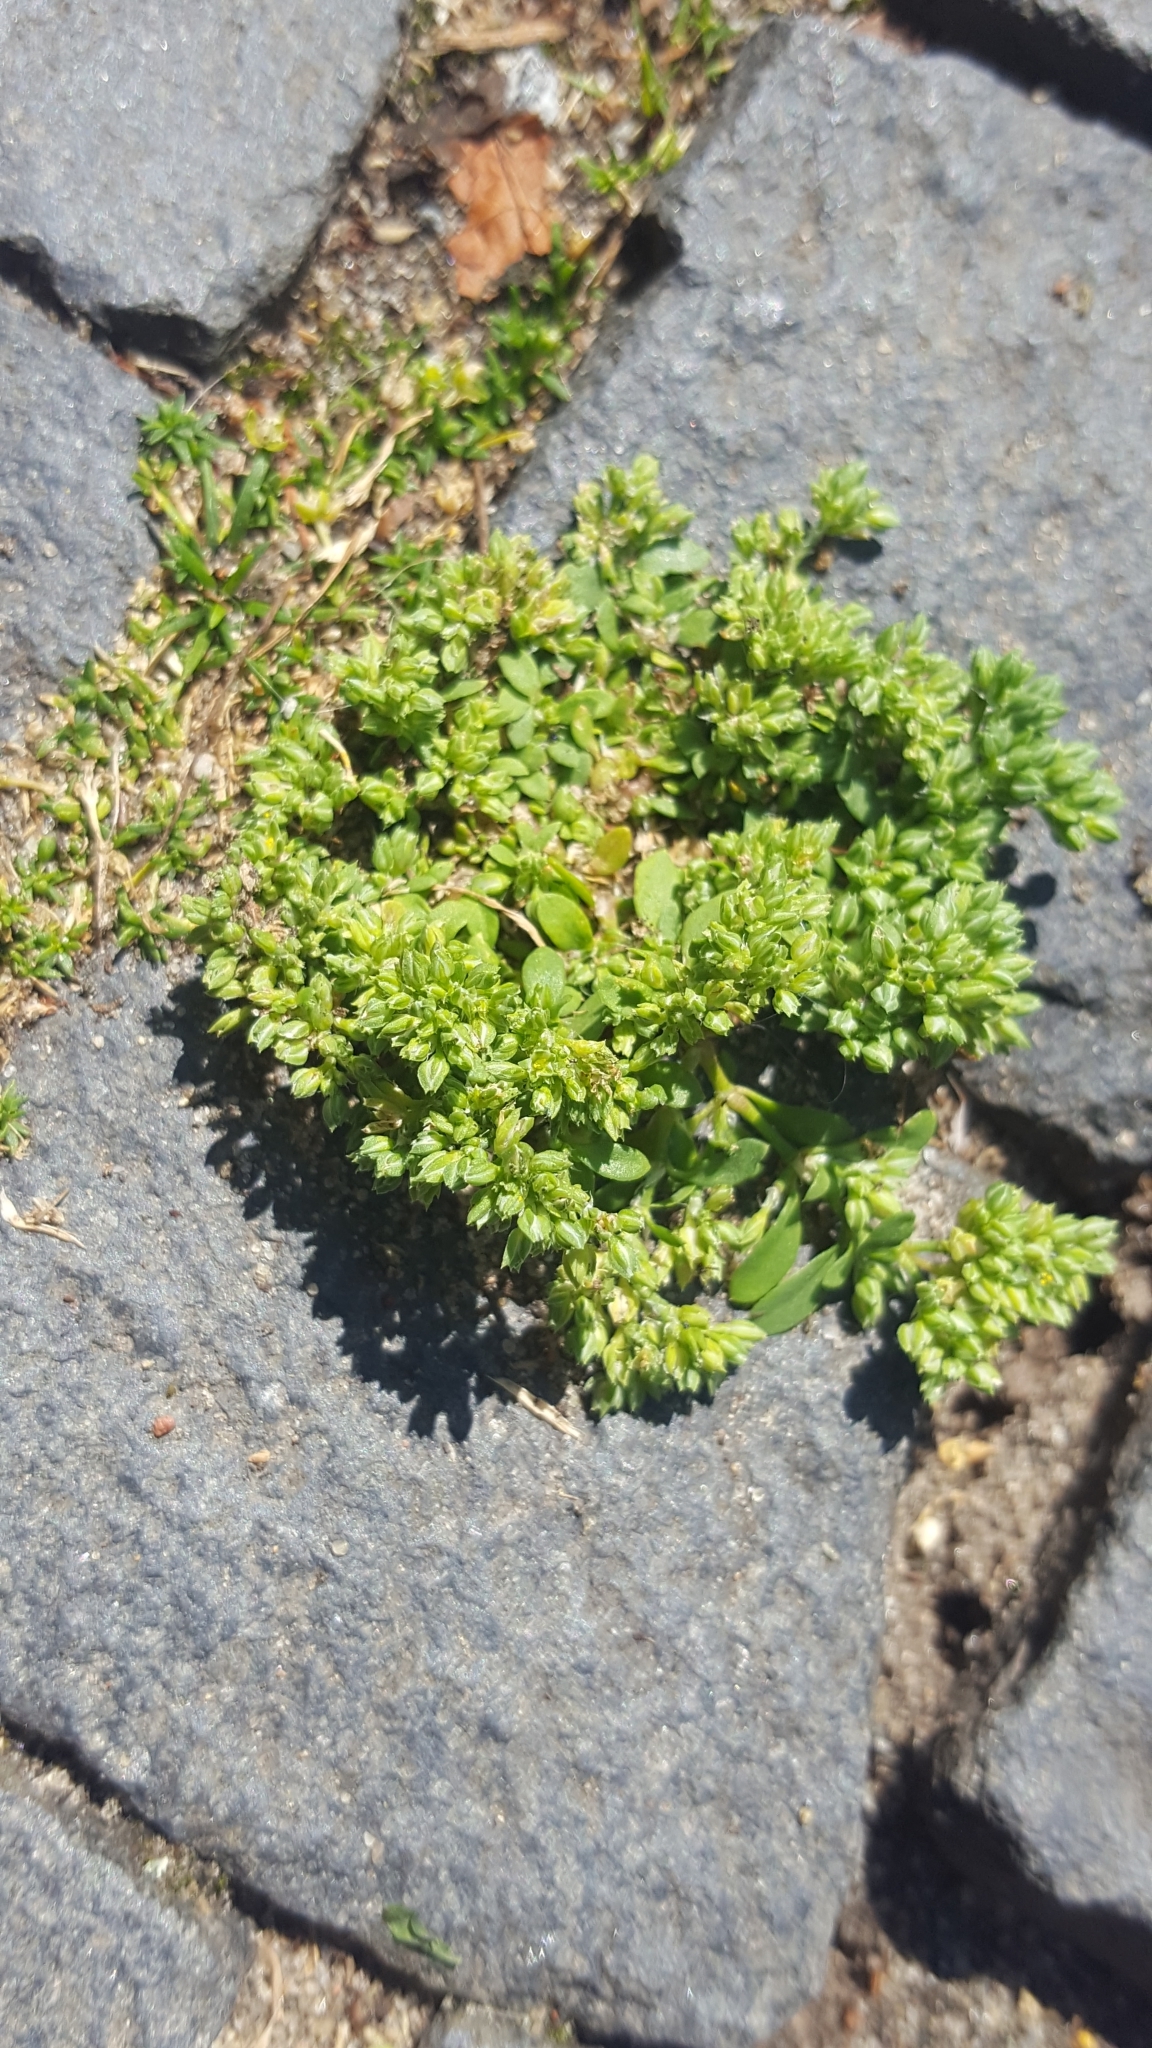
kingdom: Plantae
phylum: Tracheophyta
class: Magnoliopsida
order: Caryophyllales
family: Caryophyllaceae
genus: Polycarpon
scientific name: Polycarpon tetraphyllum
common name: Four-leaved all-seed
